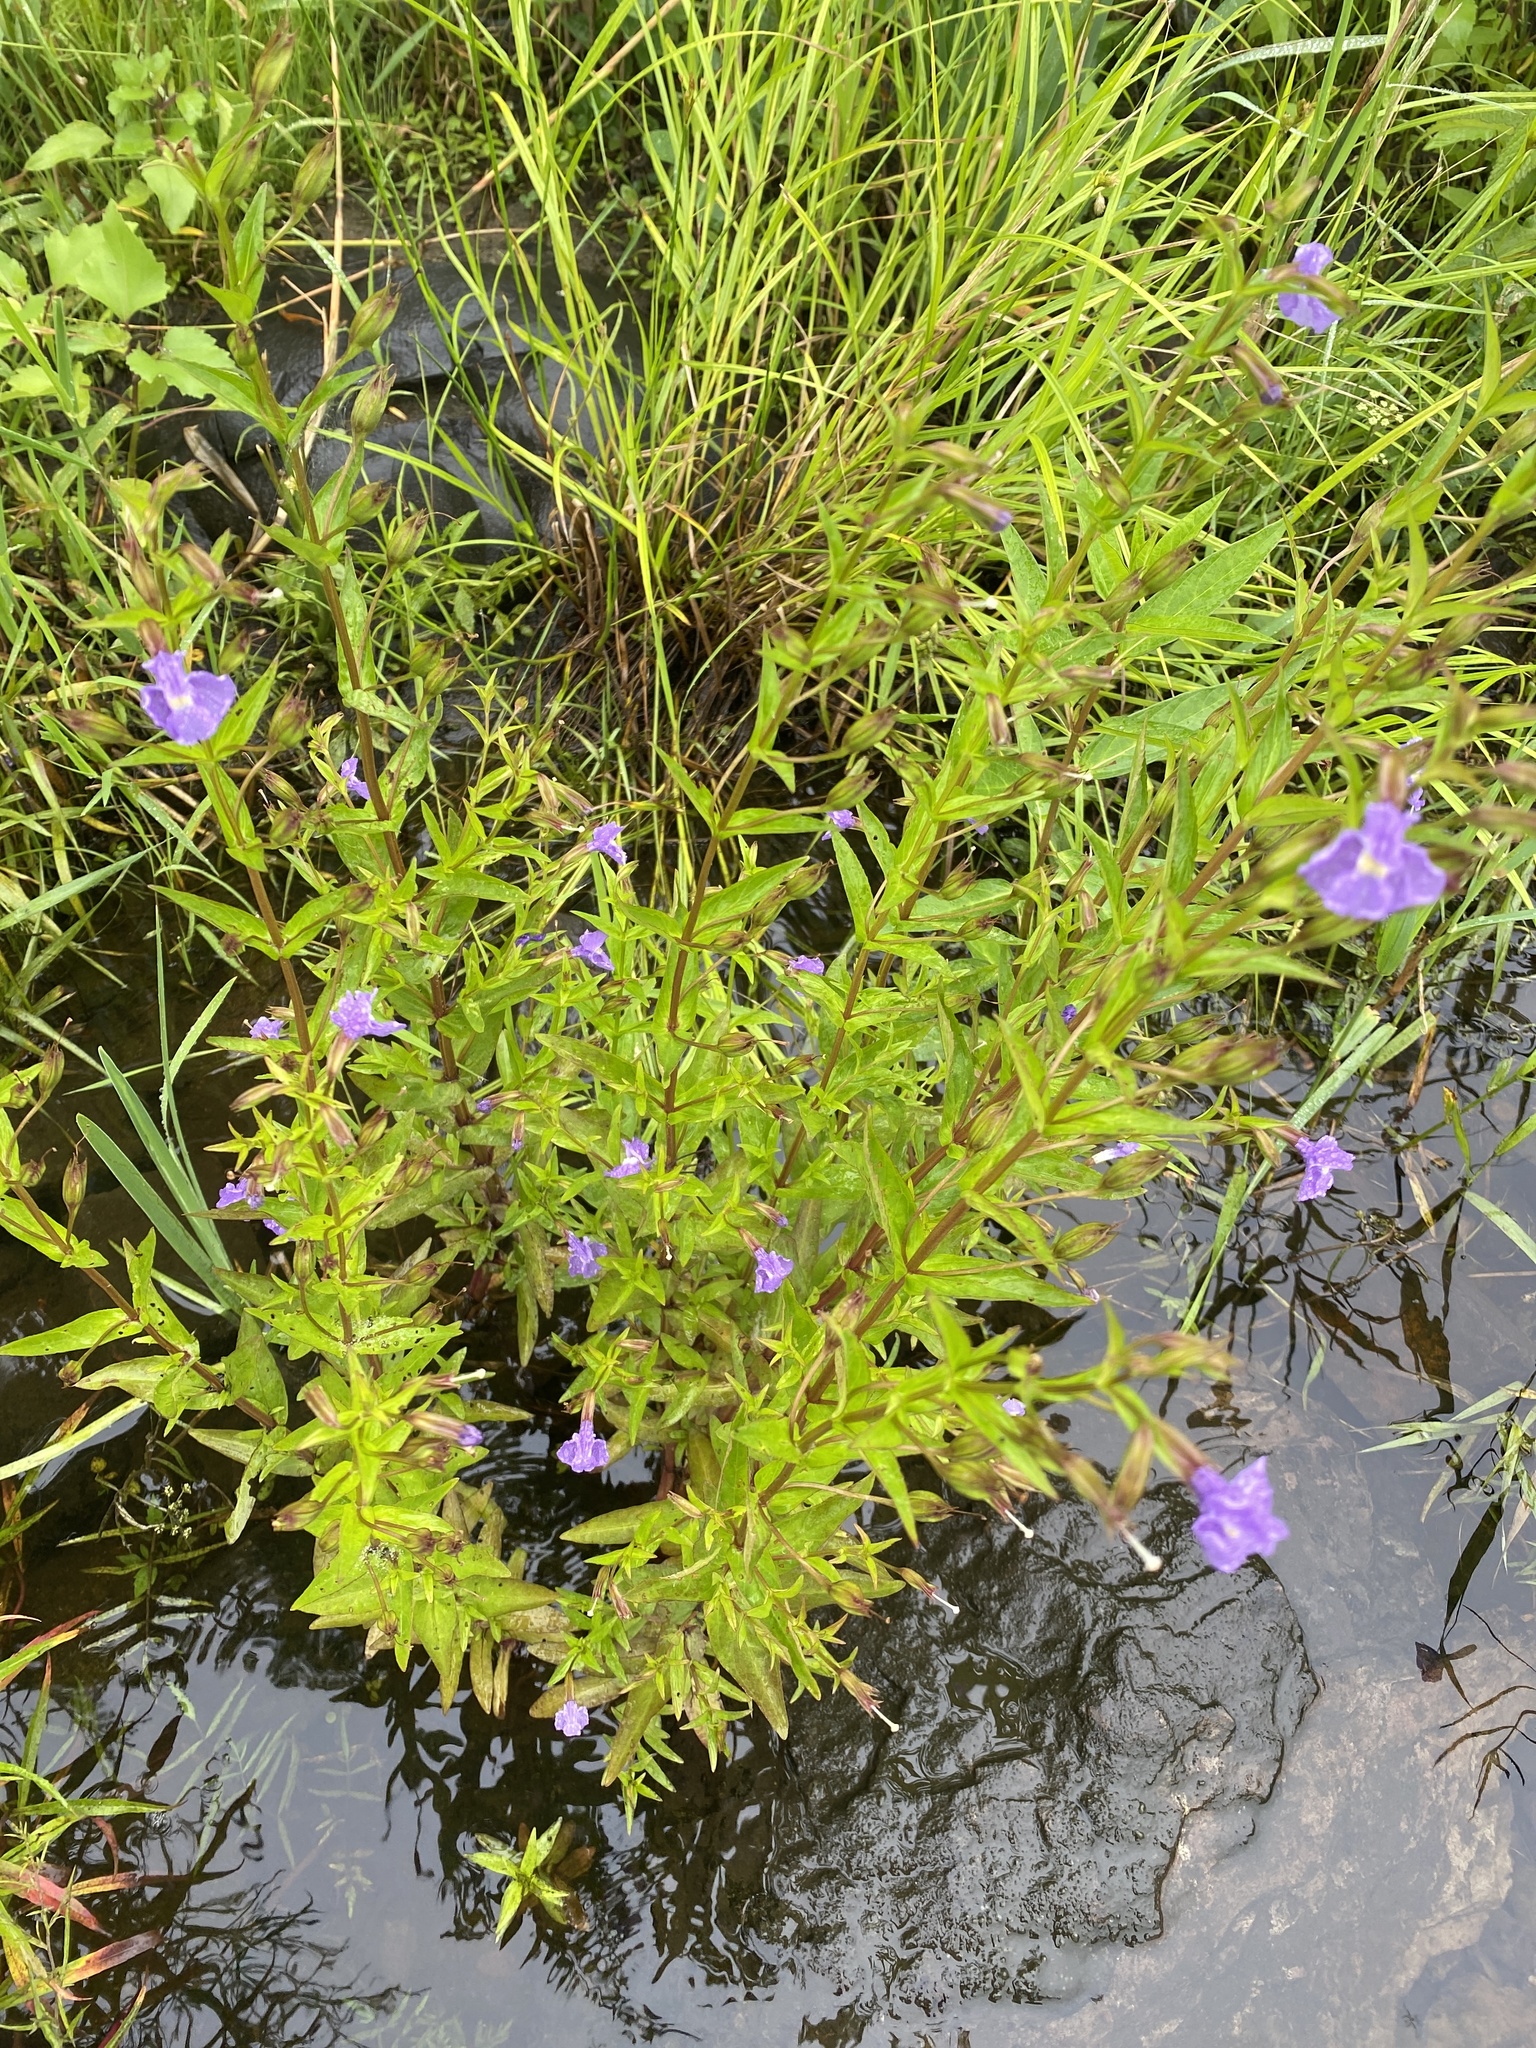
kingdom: Plantae
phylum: Tracheophyta
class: Magnoliopsida
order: Lamiales
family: Phrymaceae
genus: Mimulus
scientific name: Mimulus ringens
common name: Allegheny monkeyflower
